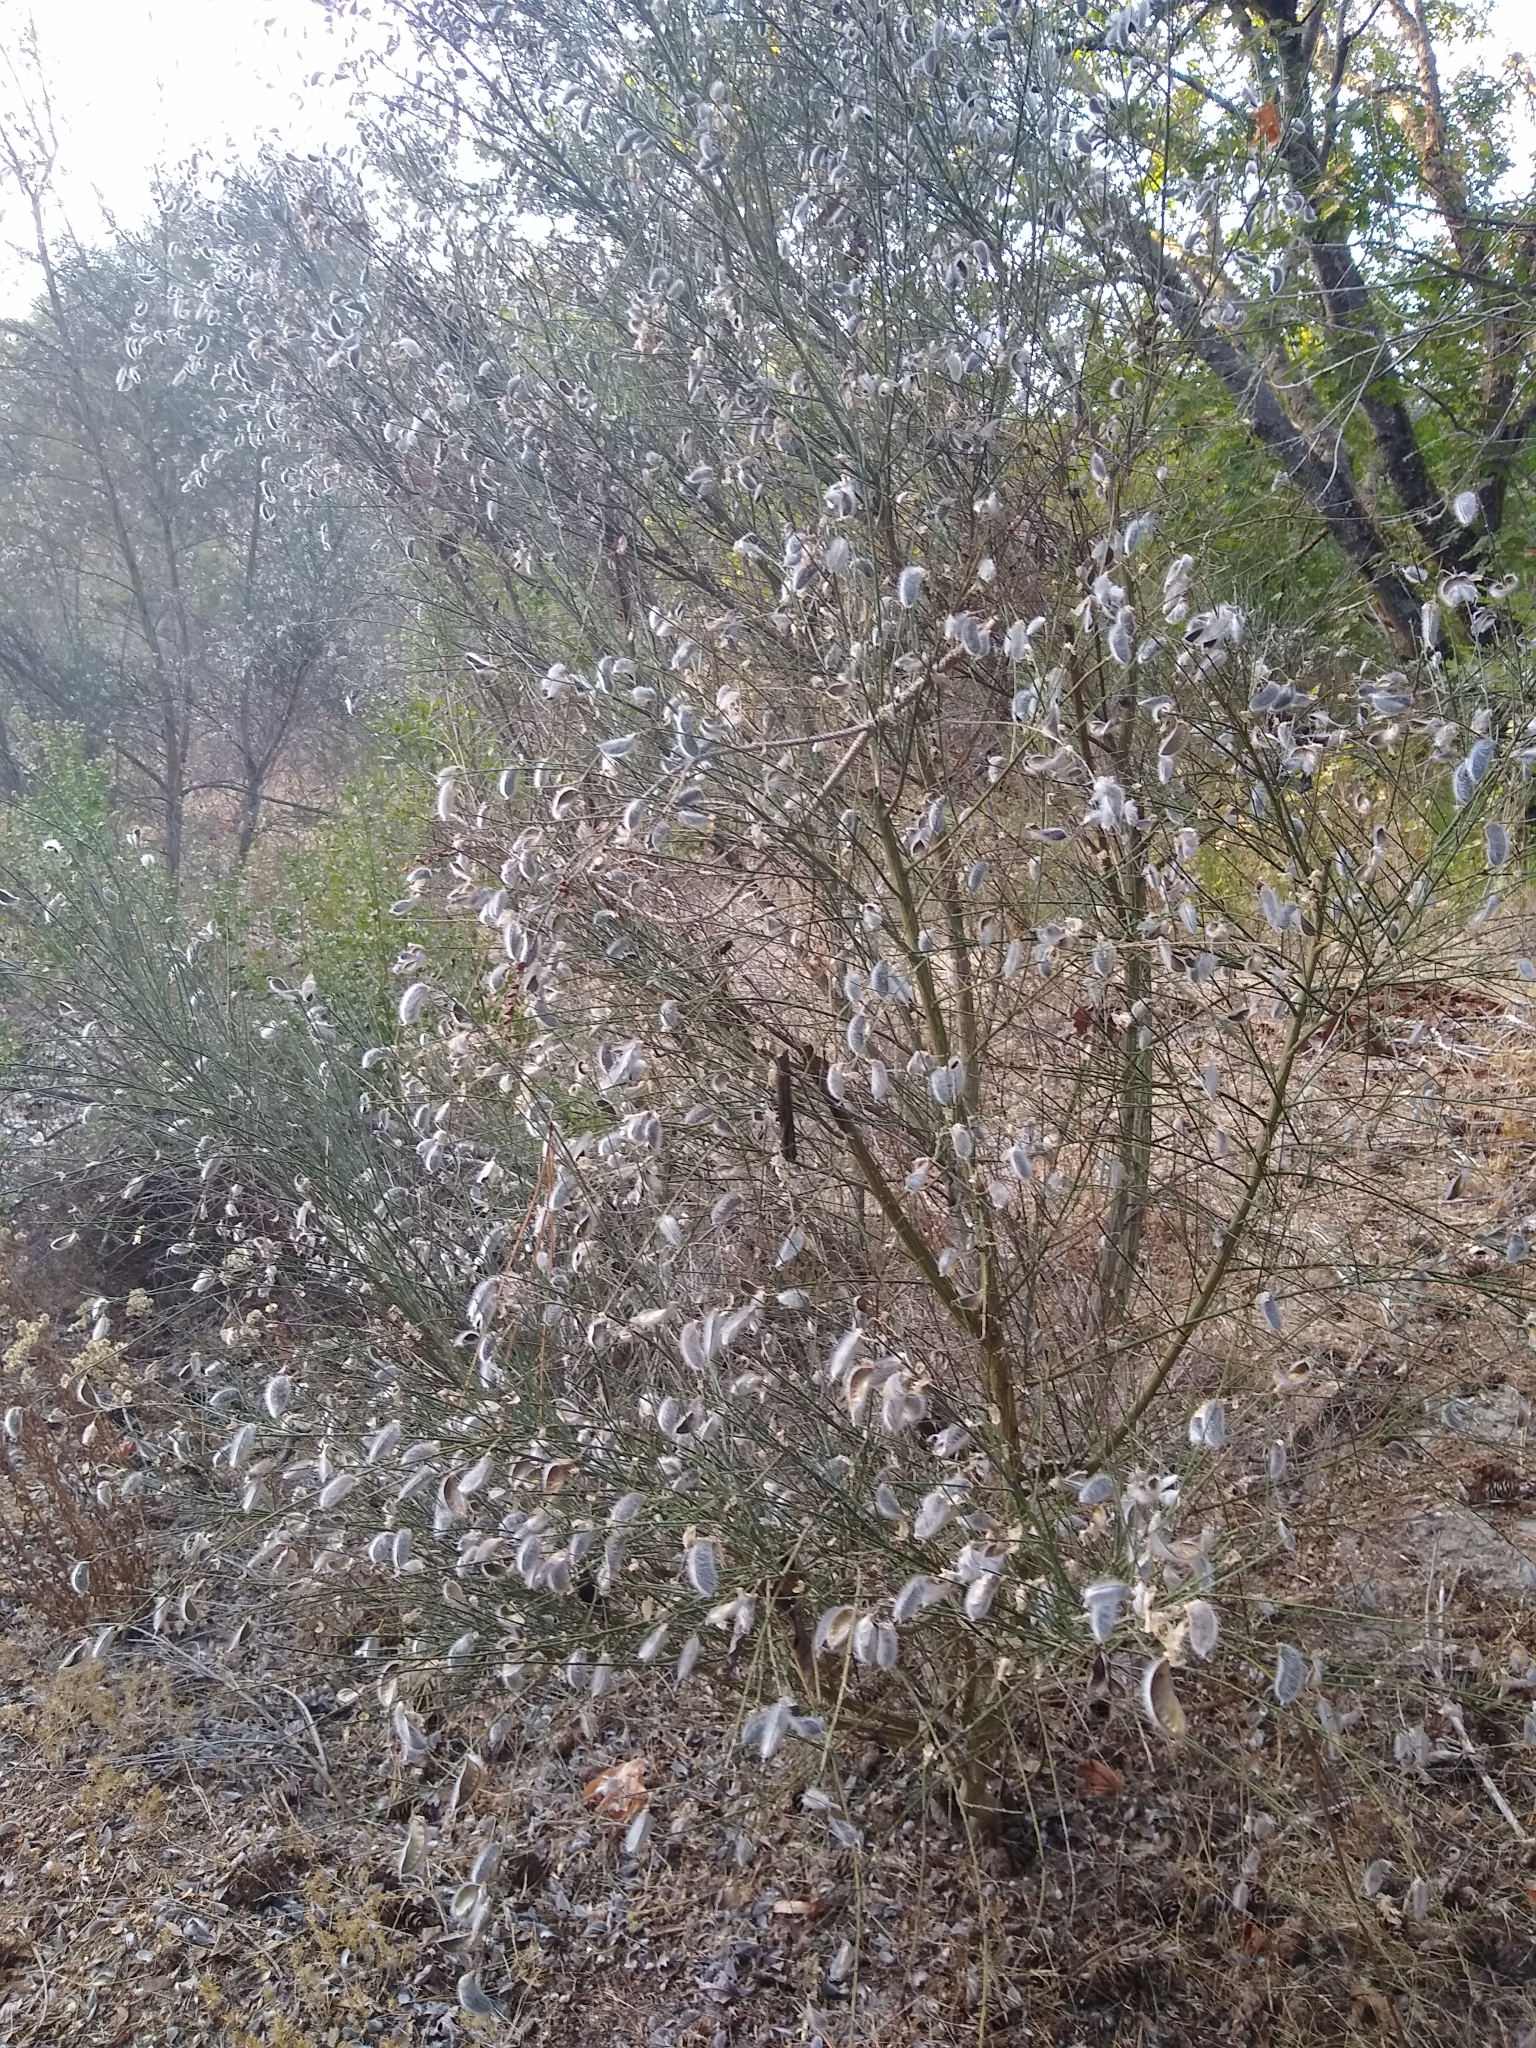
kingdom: Plantae
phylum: Tracheophyta
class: Magnoliopsida
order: Fabales
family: Fabaceae
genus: Cytisus
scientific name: Cytisus striatus
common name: Hairy-fruited broom
